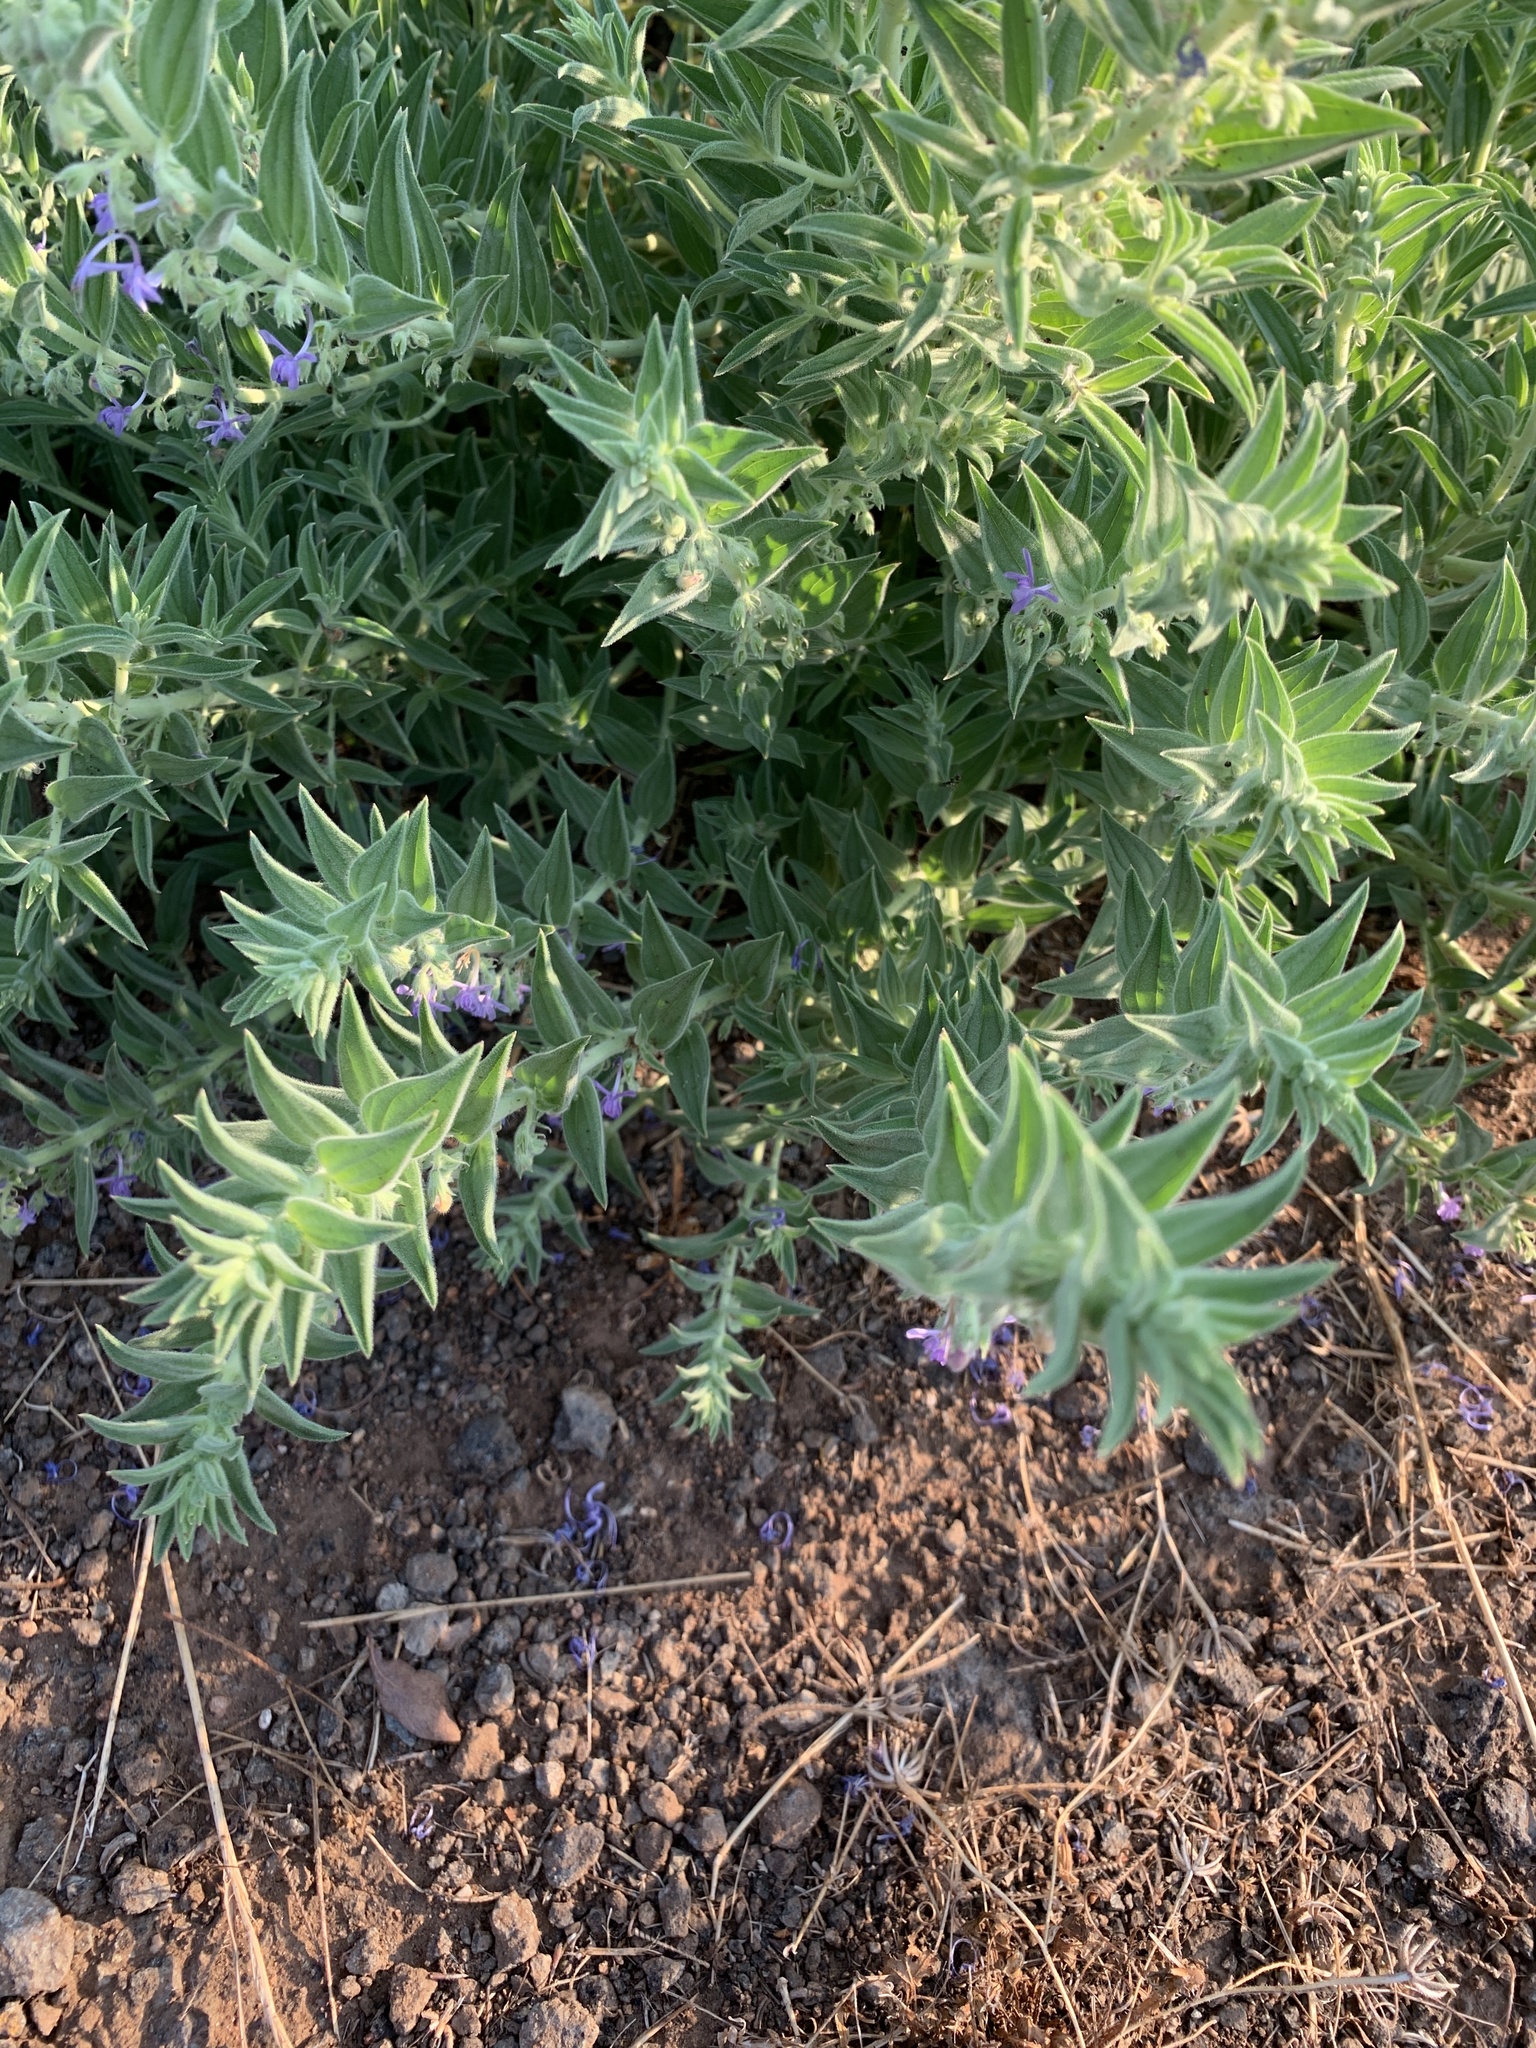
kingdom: Plantae
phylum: Tracheophyta
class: Magnoliopsida
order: Lamiales
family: Lamiaceae
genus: Trichostema
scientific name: Trichostema lanceolatum
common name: Vinegar-weed
